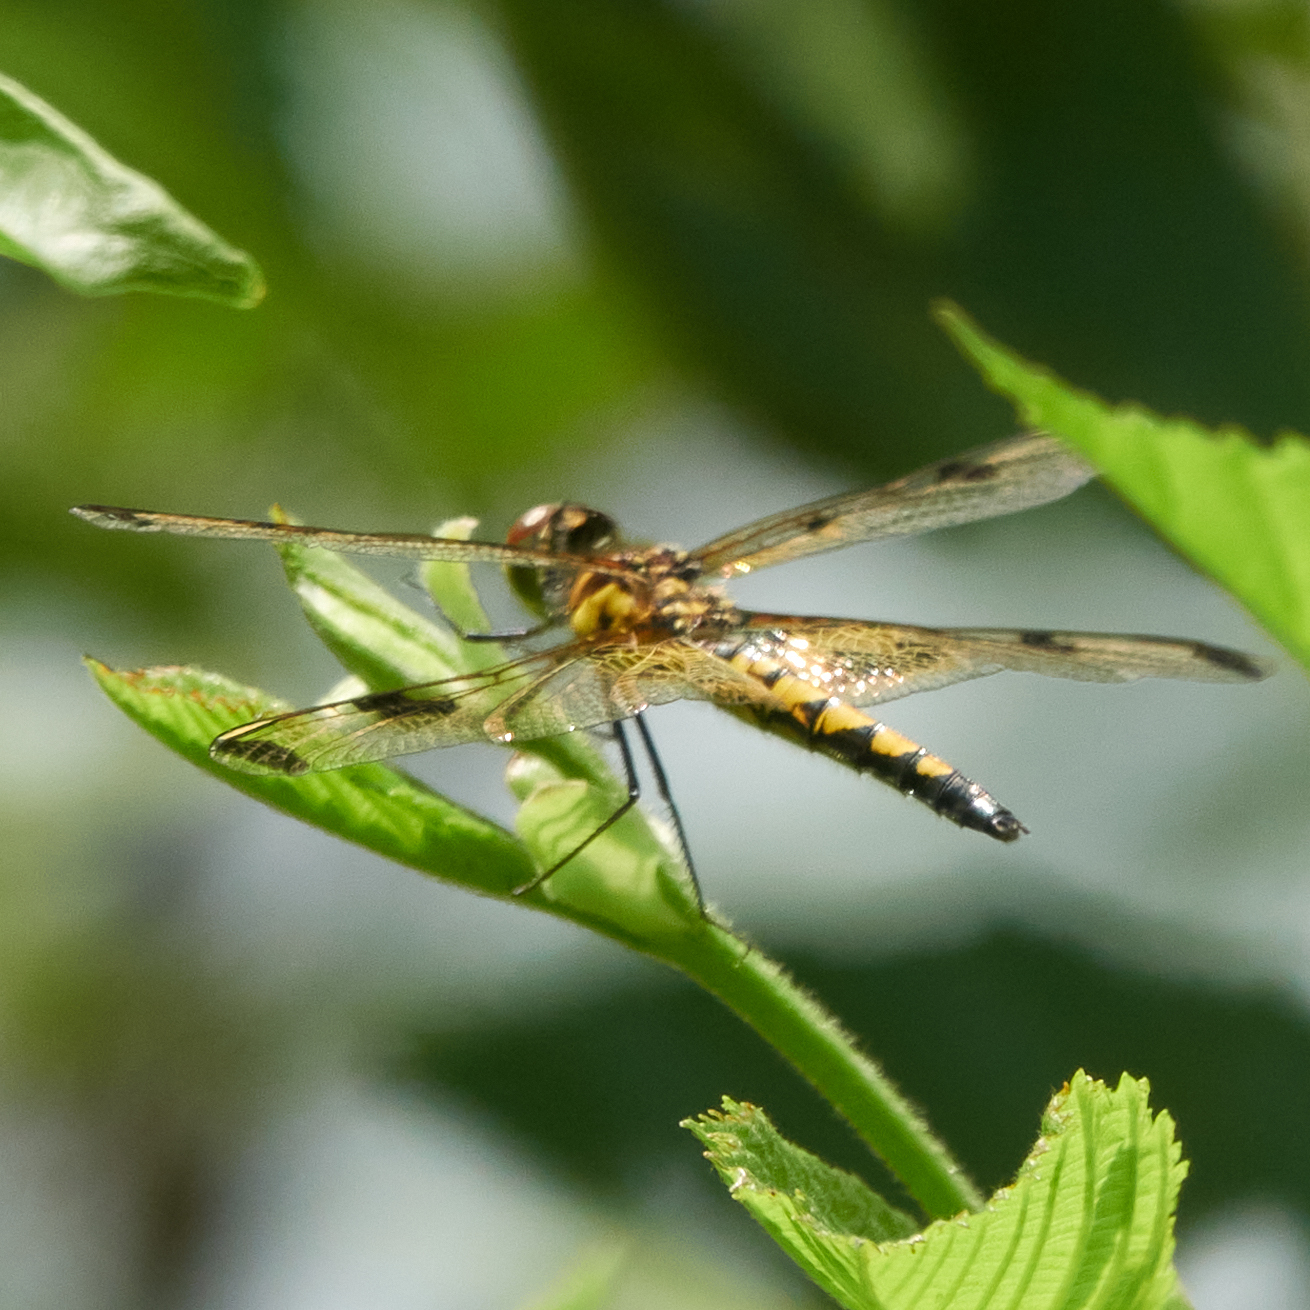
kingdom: Animalia
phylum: Arthropoda
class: Insecta
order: Odonata
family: Libellulidae
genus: Celithemis
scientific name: Celithemis elisa
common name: Calico pennant
